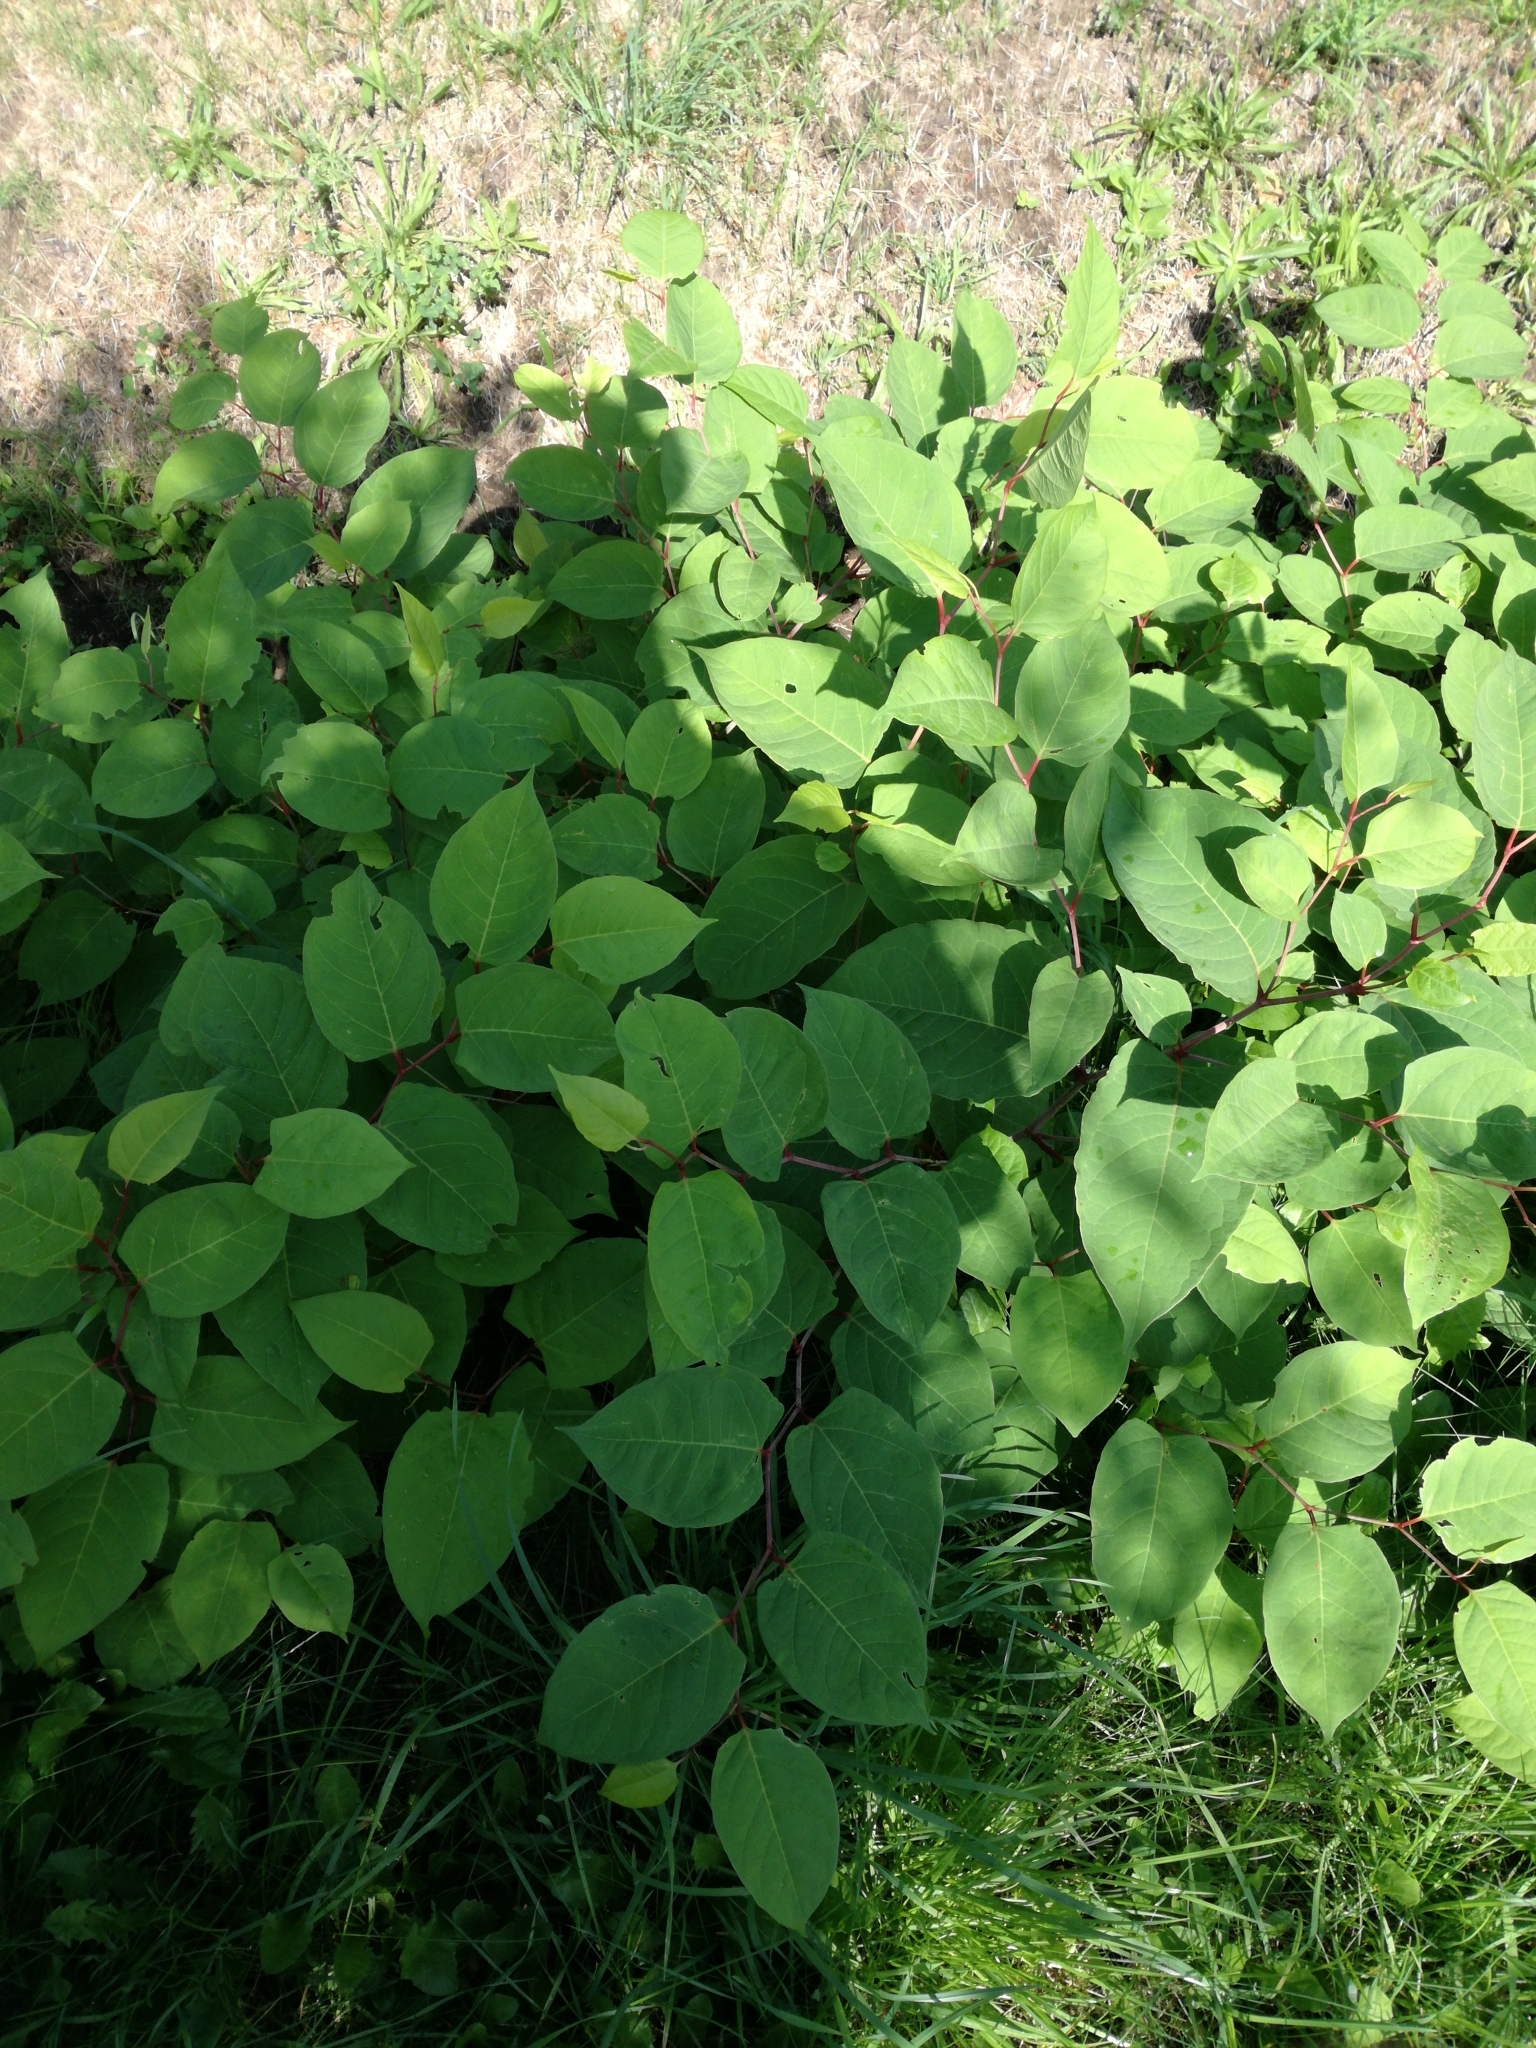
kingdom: Plantae
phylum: Tracheophyta
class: Magnoliopsida
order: Caryophyllales
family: Polygonaceae
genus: Reynoutria
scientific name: Reynoutria japonica
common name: Japanese knotweed
